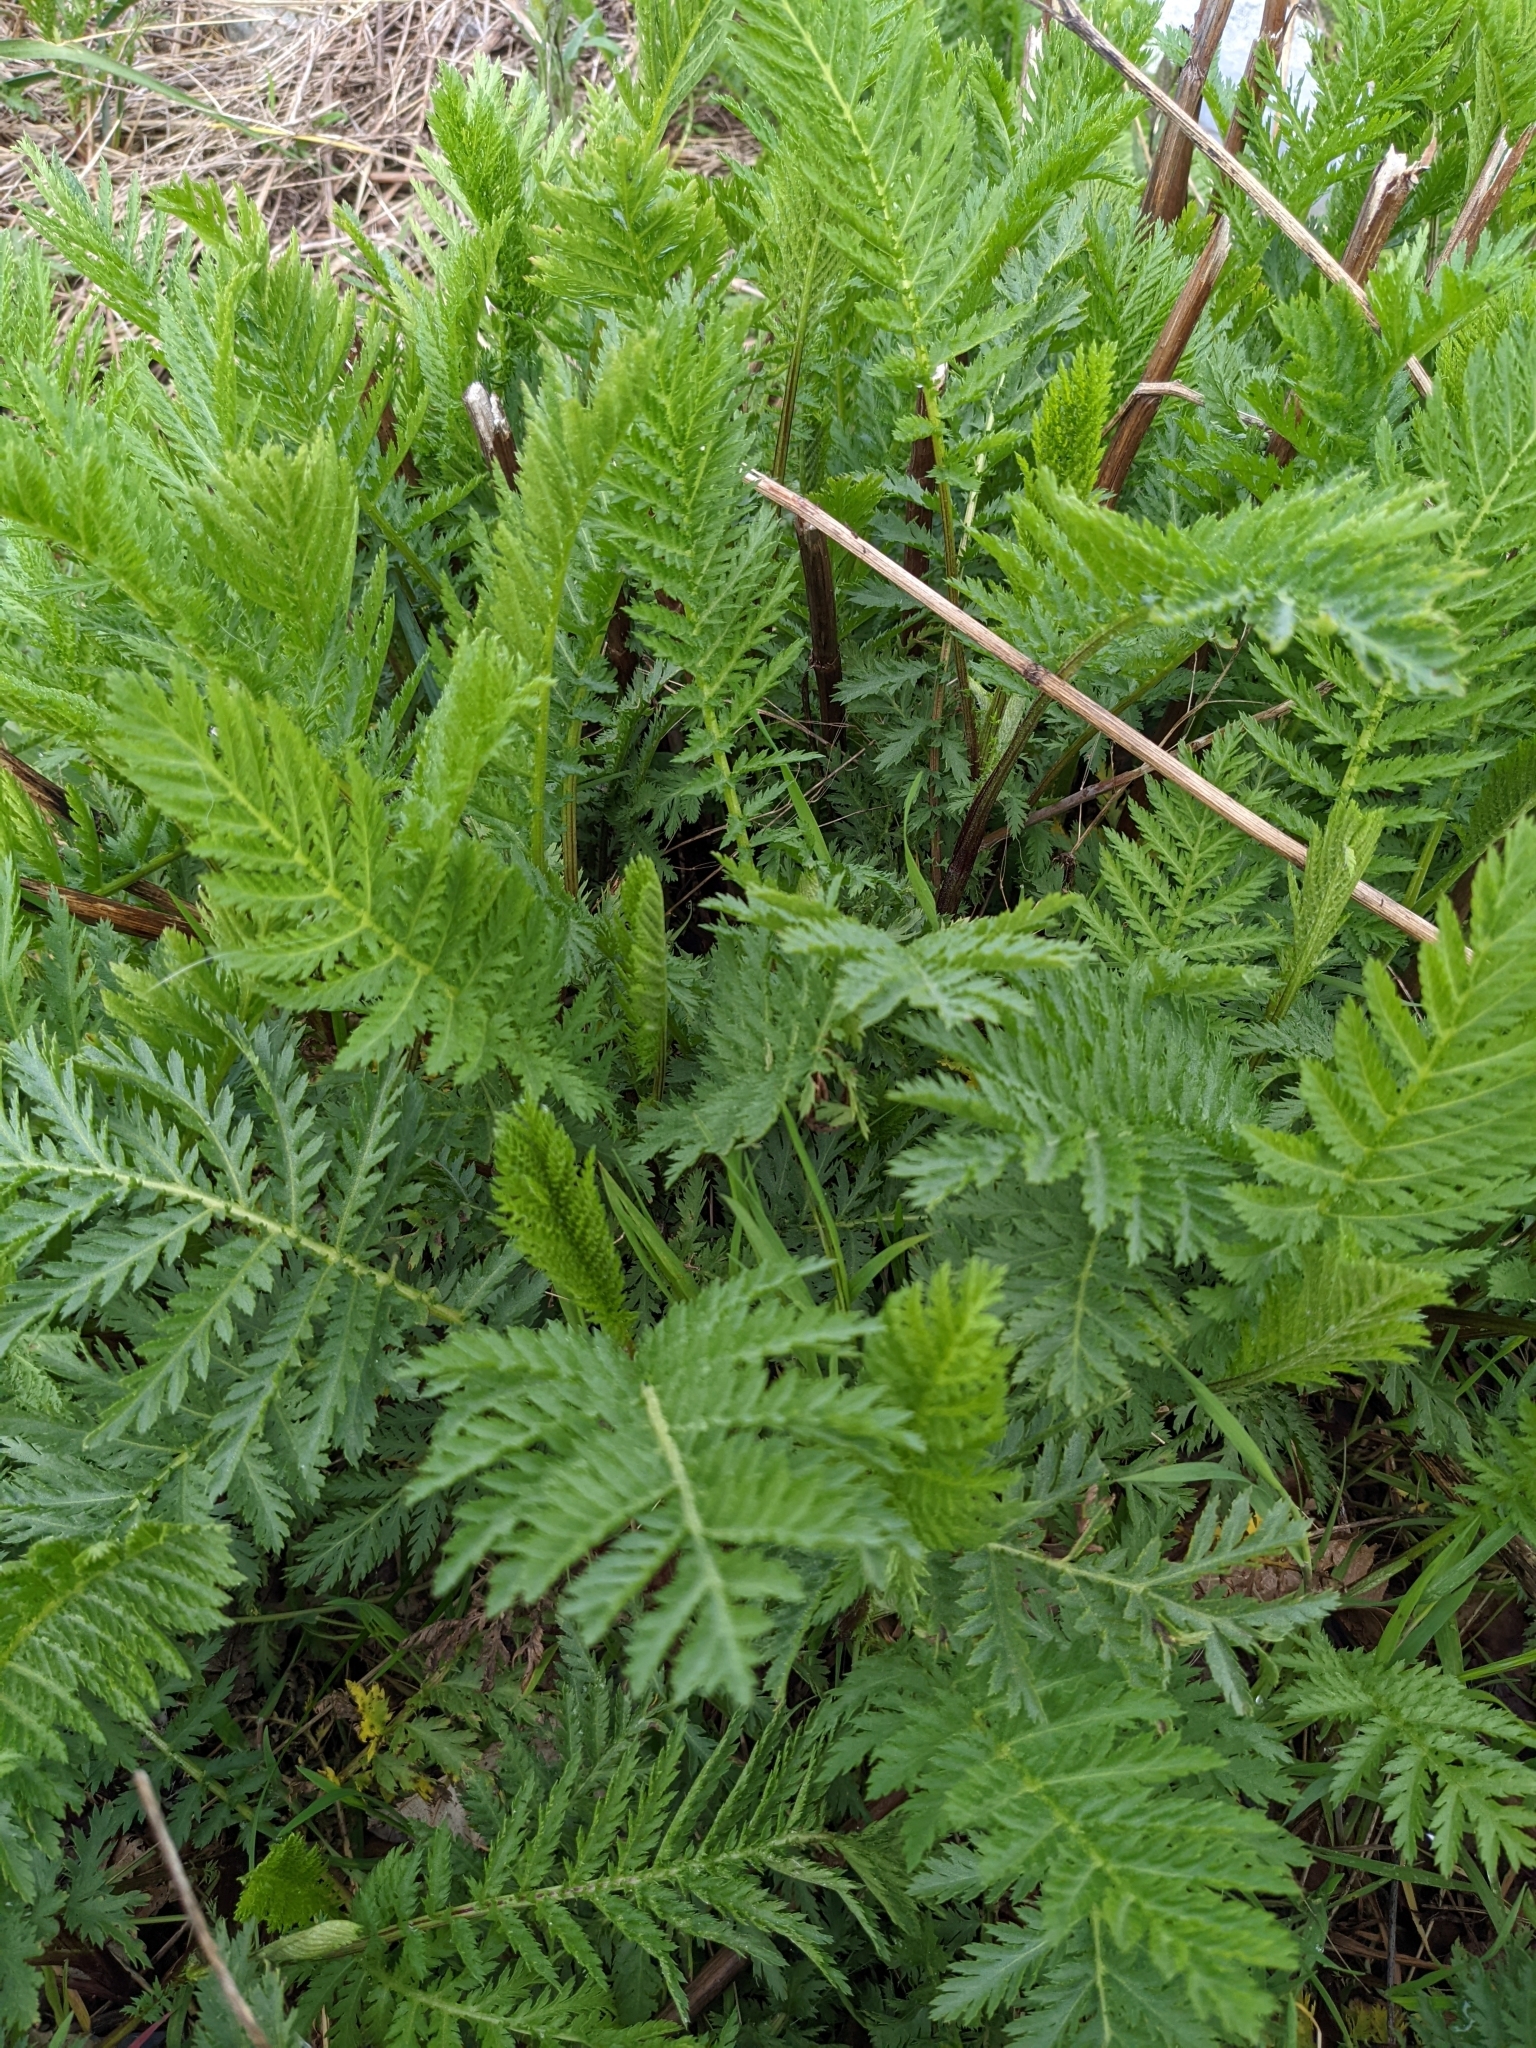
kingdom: Plantae
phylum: Tracheophyta
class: Magnoliopsida
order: Asterales
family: Asteraceae
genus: Tanacetum
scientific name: Tanacetum vulgare
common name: Common tansy
